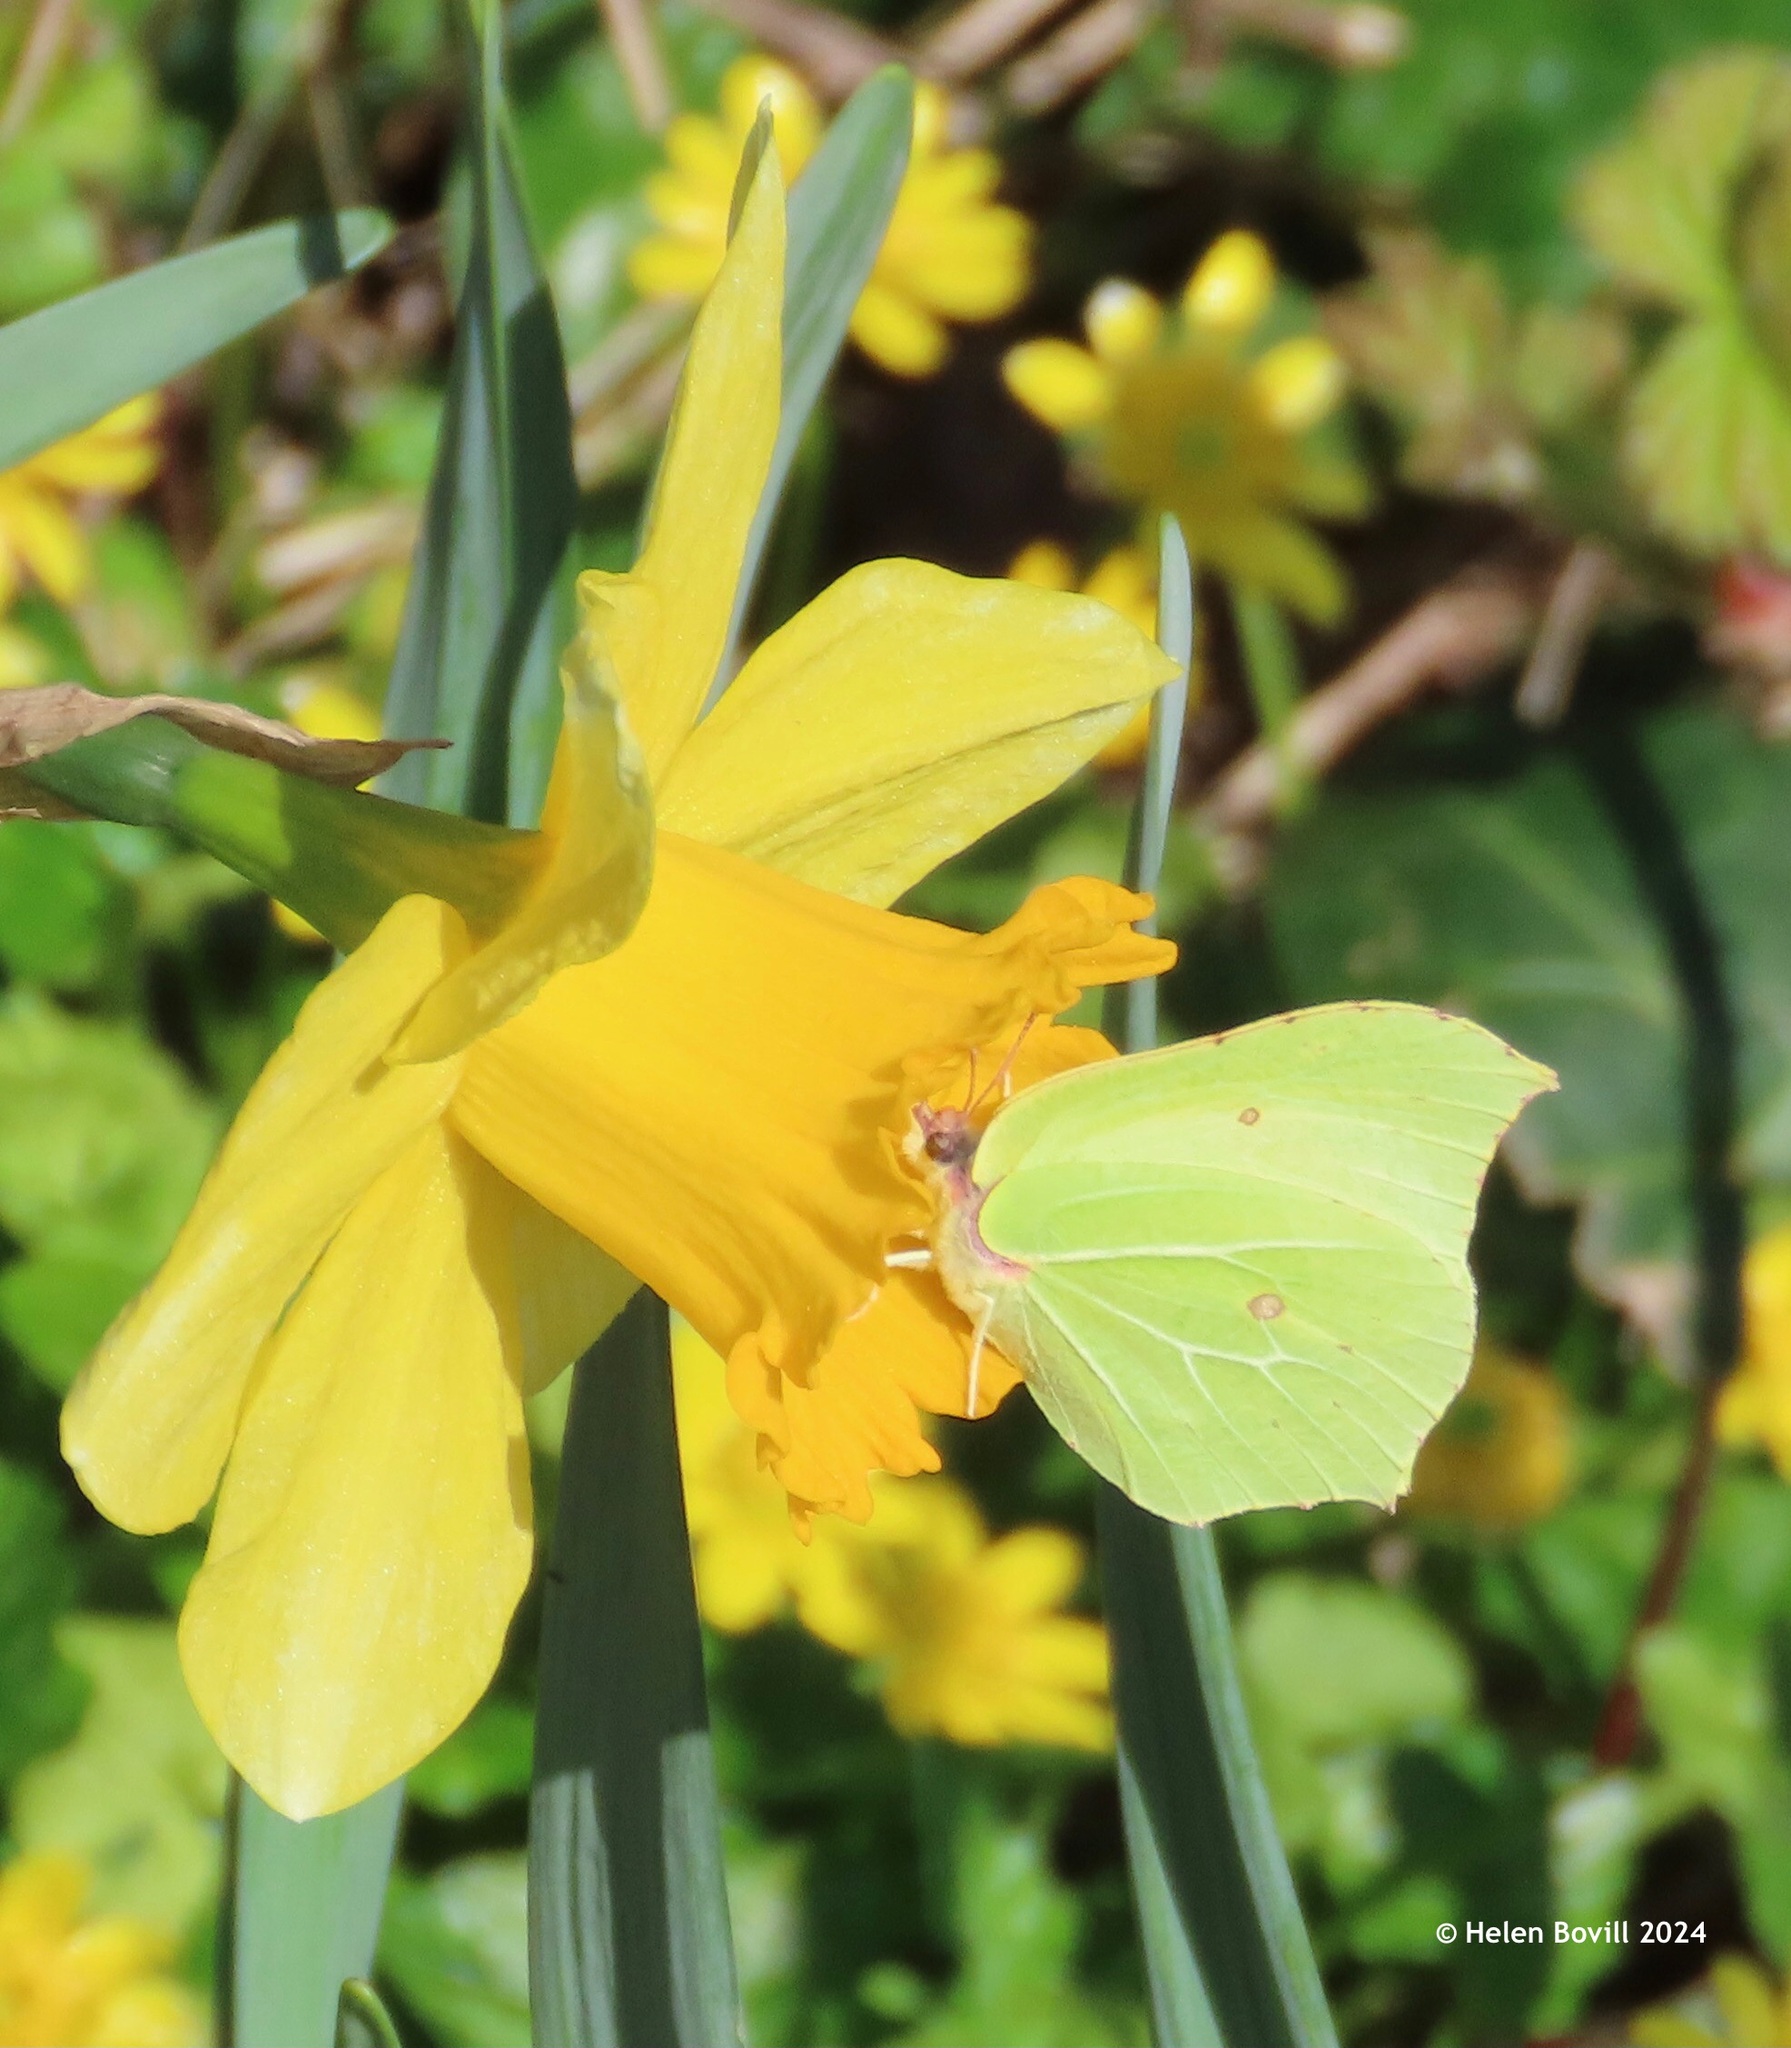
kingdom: Animalia
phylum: Arthropoda
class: Insecta
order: Lepidoptera
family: Pieridae
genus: Gonepteryx
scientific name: Gonepteryx rhamni
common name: Brimstone
